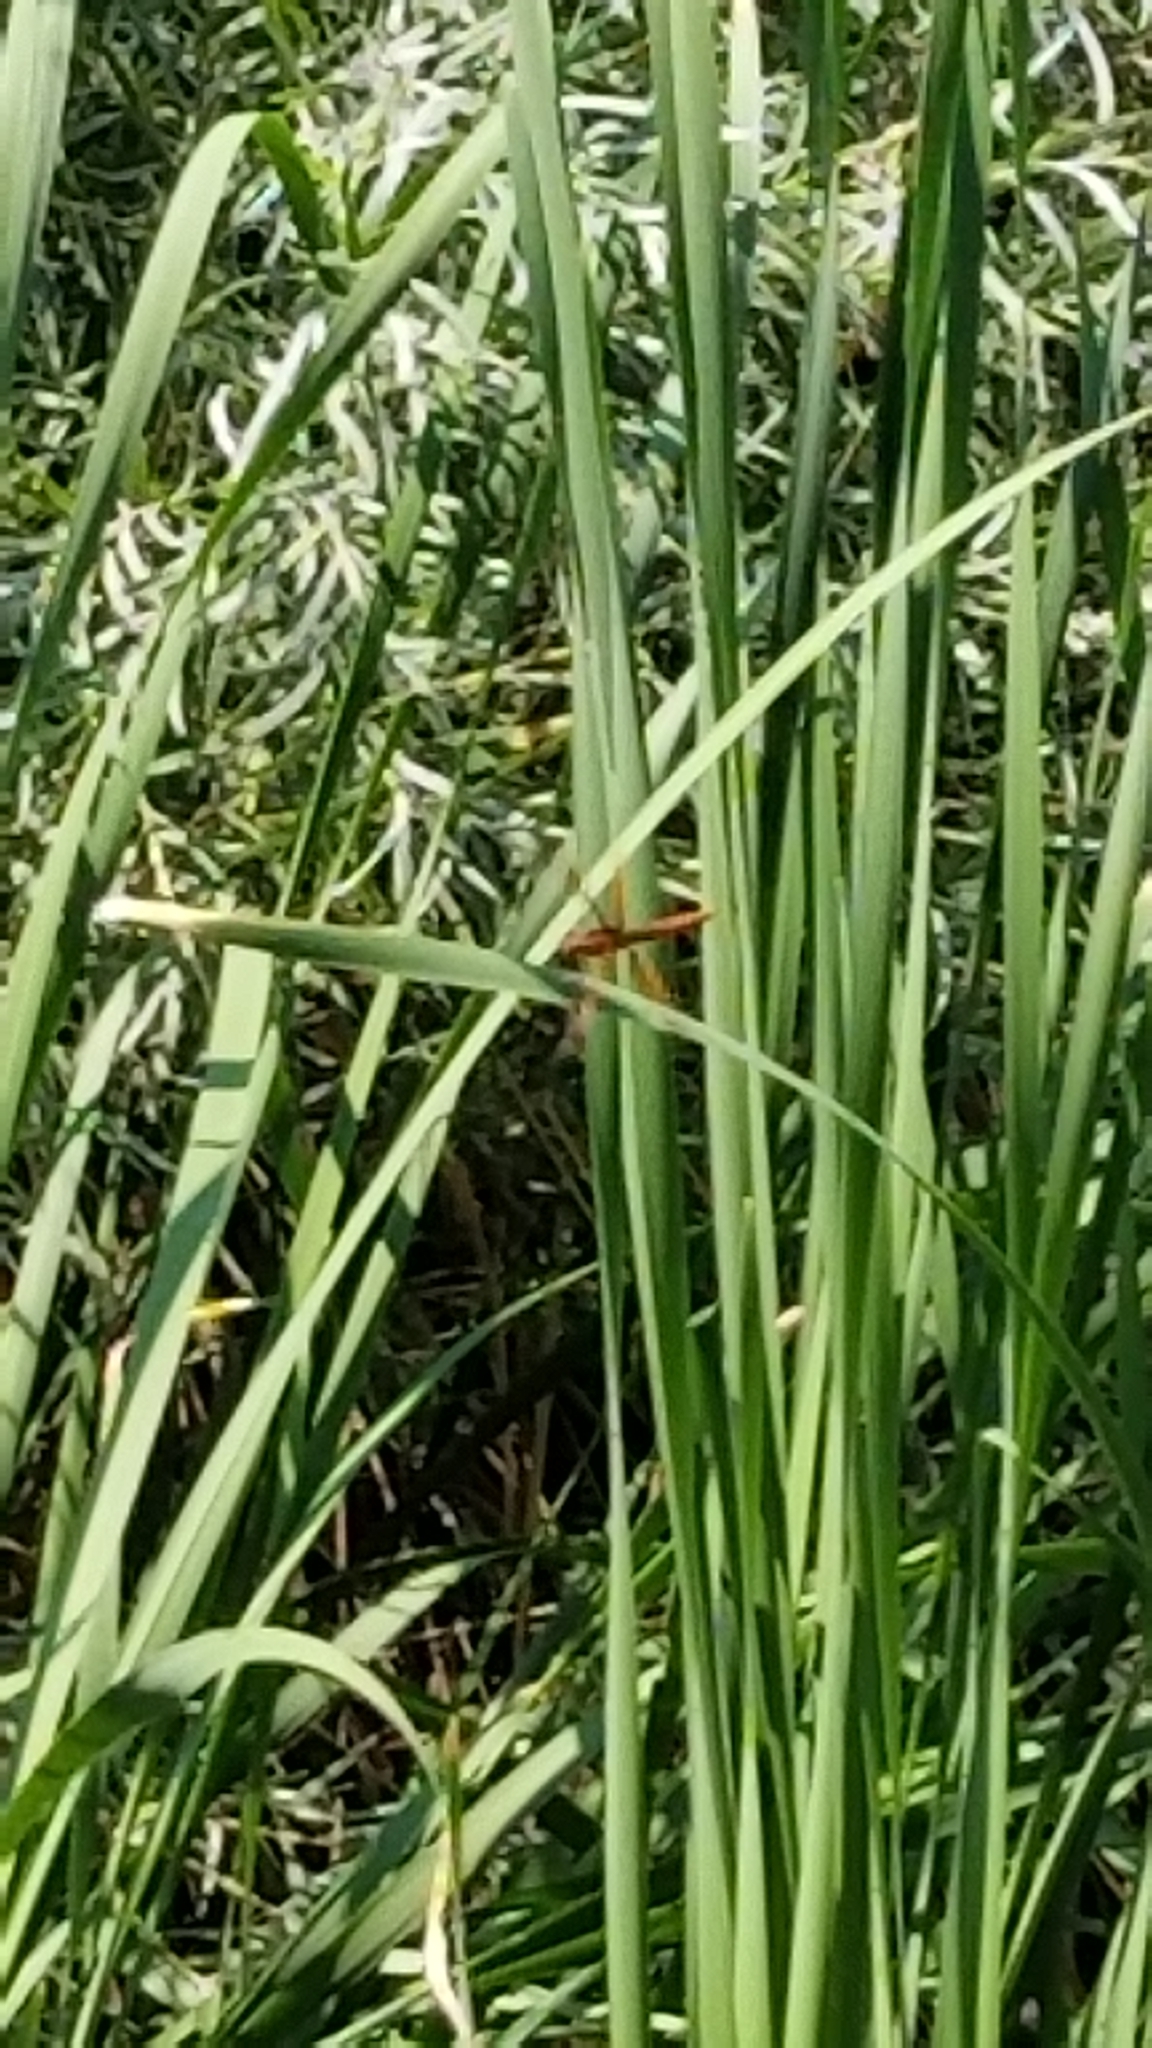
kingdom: Animalia
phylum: Arthropoda
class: Insecta
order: Odonata
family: Libellulidae
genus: Libellula
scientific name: Libellula saturata
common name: Flame skimmer
